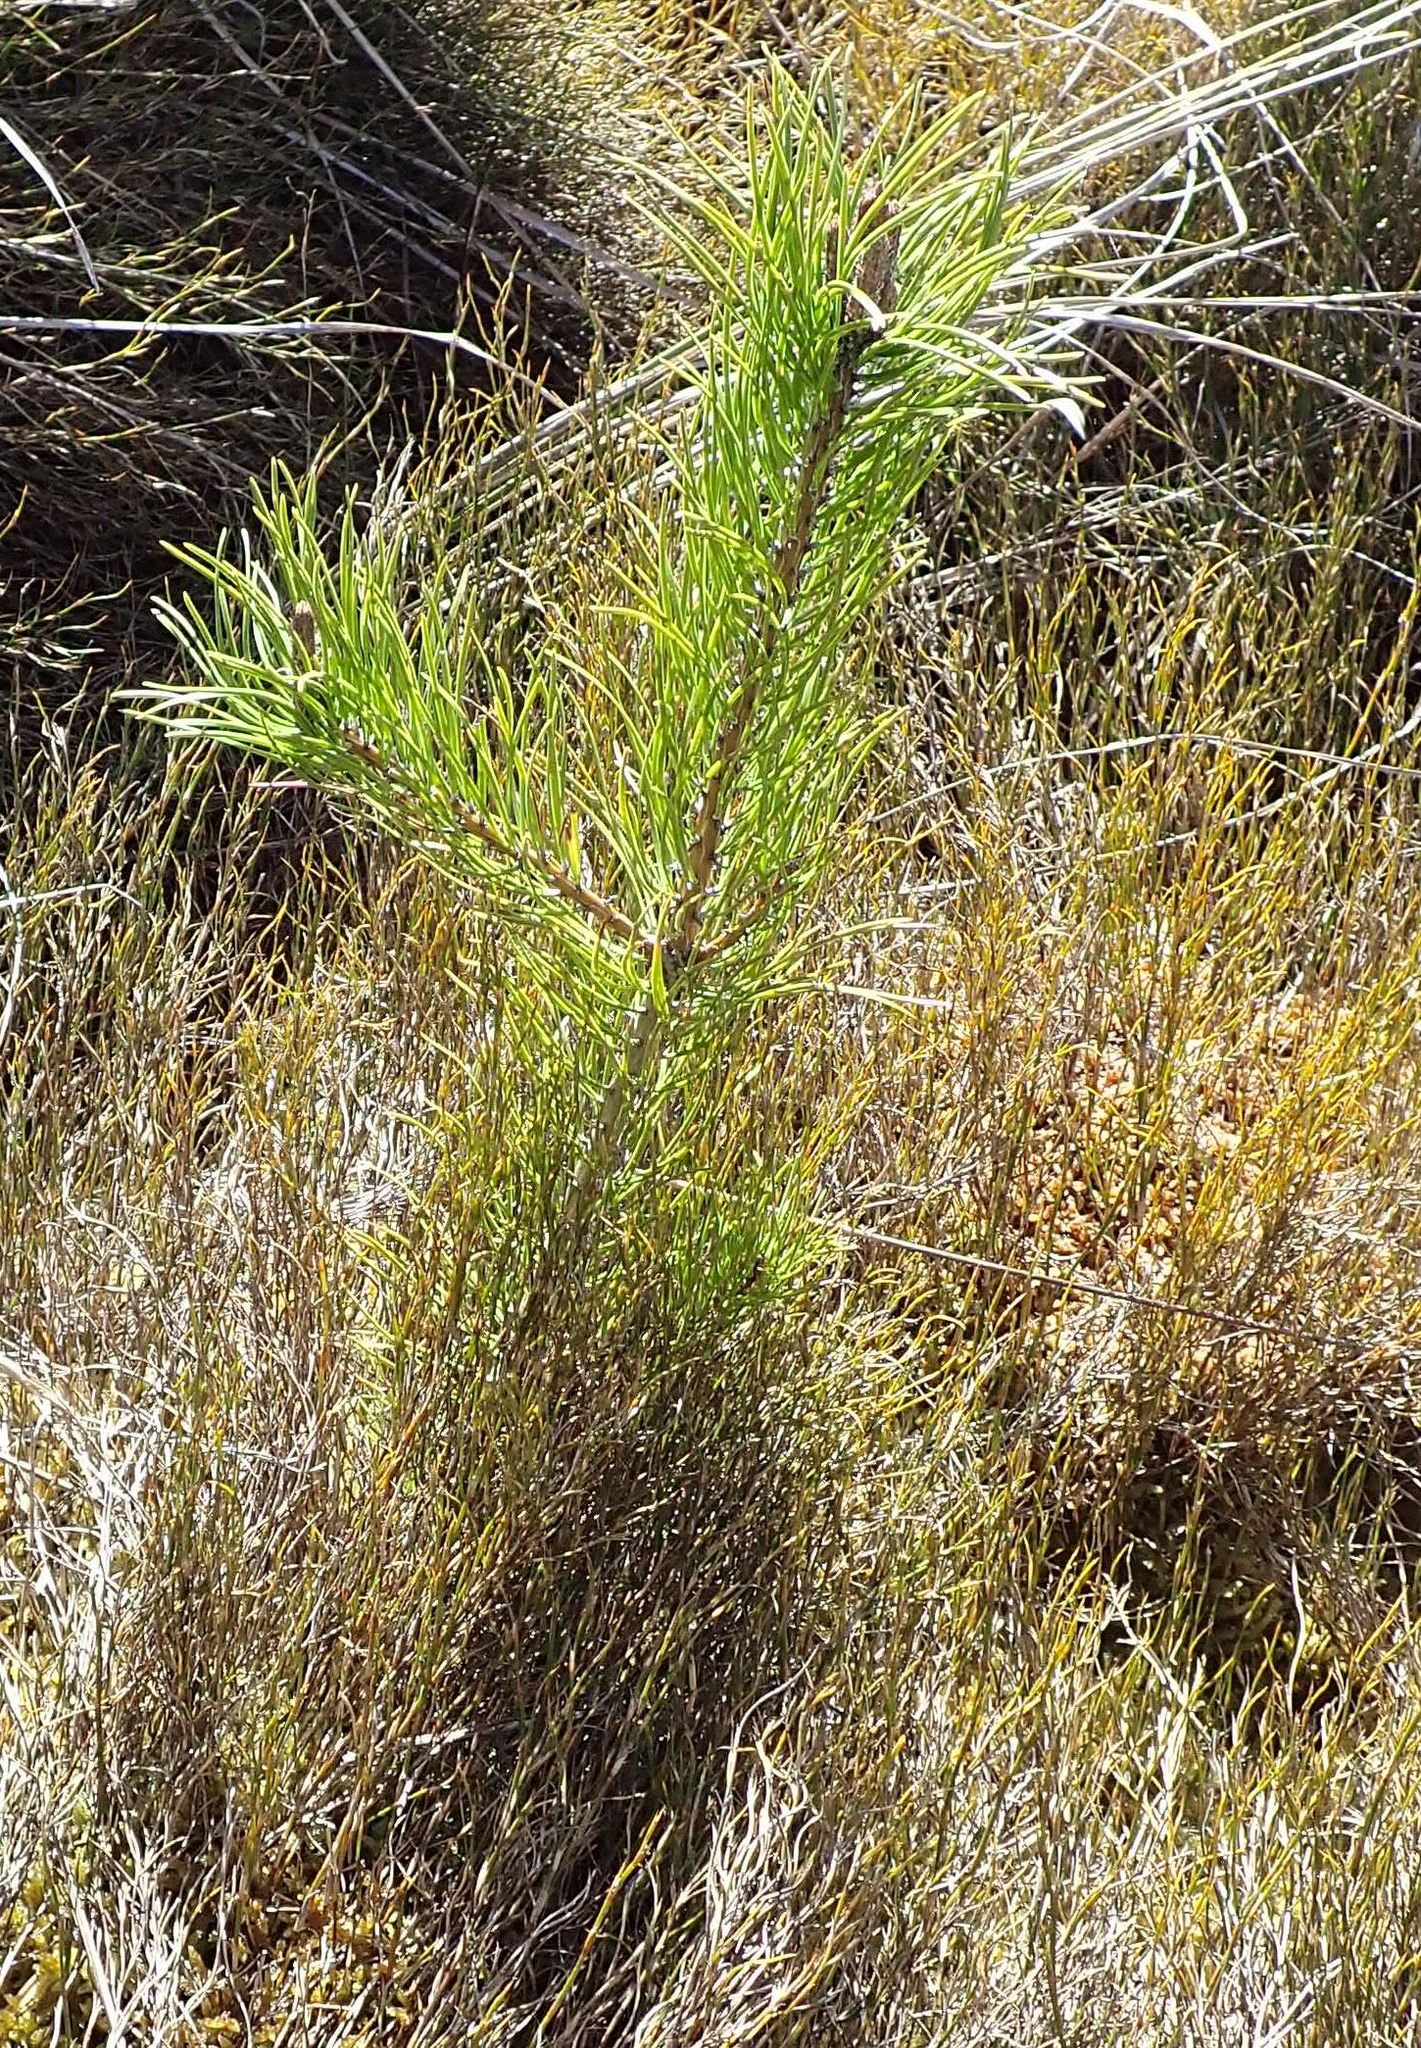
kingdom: Plantae
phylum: Tracheophyta
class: Pinopsida
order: Pinales
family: Pinaceae
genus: Pinus
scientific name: Pinus contorta
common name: Lodgepole pine
